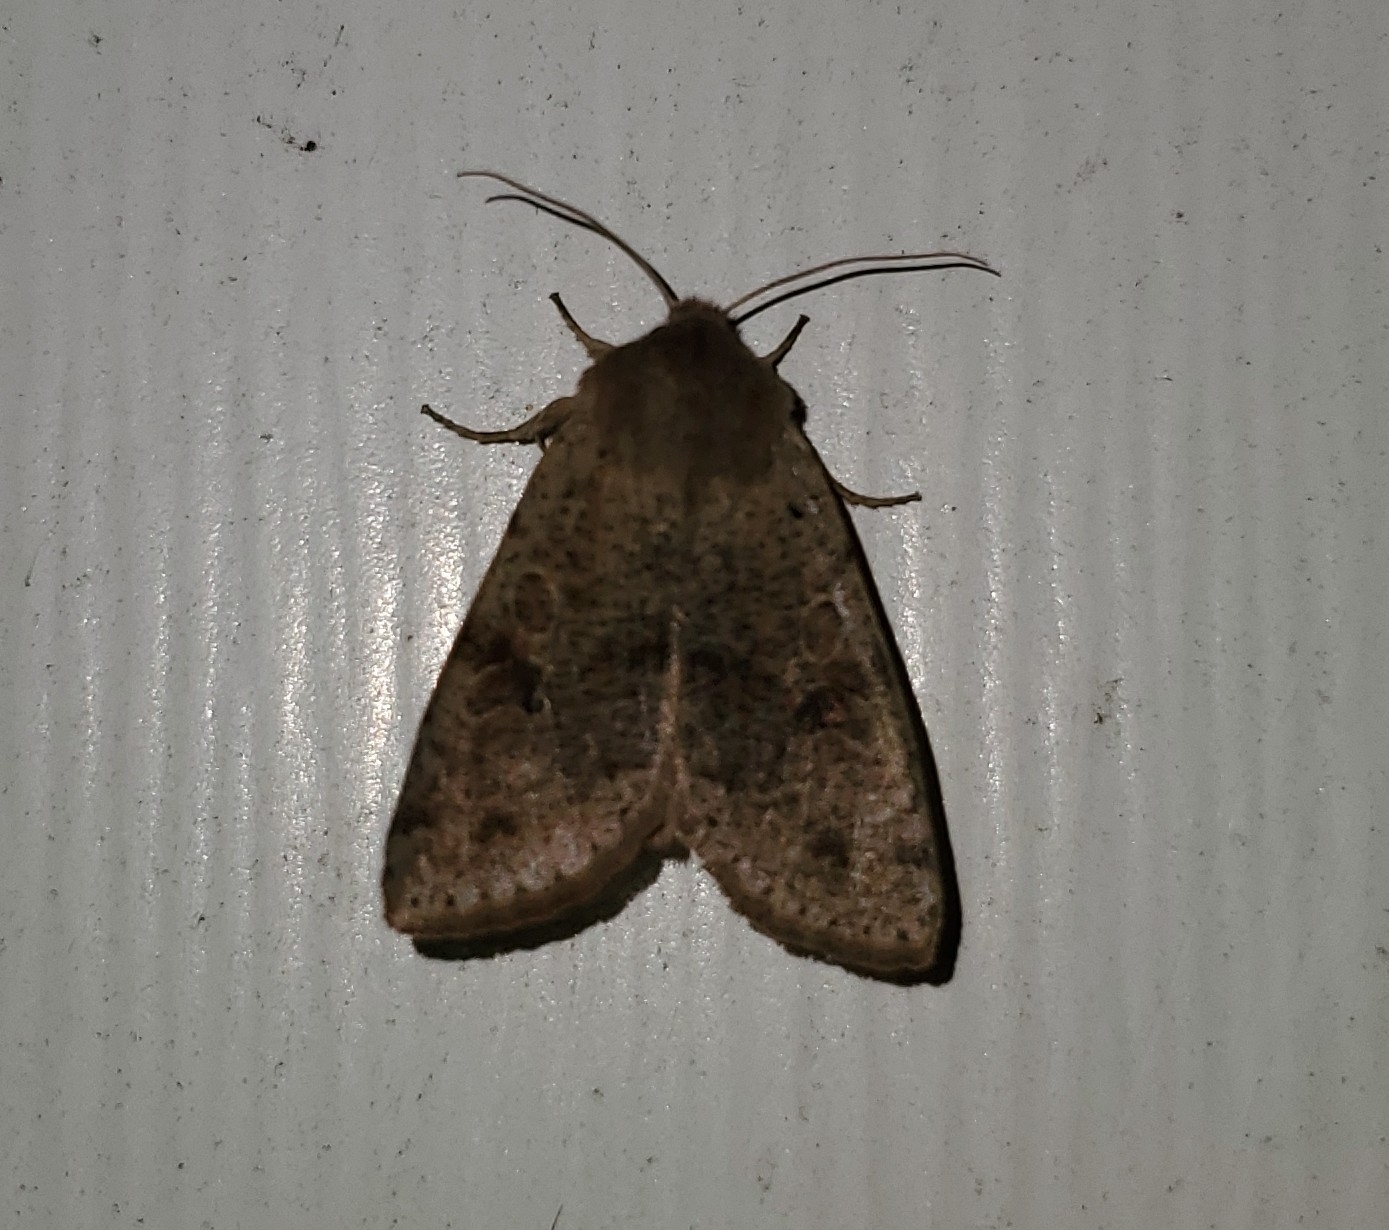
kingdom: Animalia
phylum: Arthropoda
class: Insecta
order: Lepidoptera
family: Noctuidae
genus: Orthosia
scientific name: Orthosia hibisci
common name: Green fruitworm
